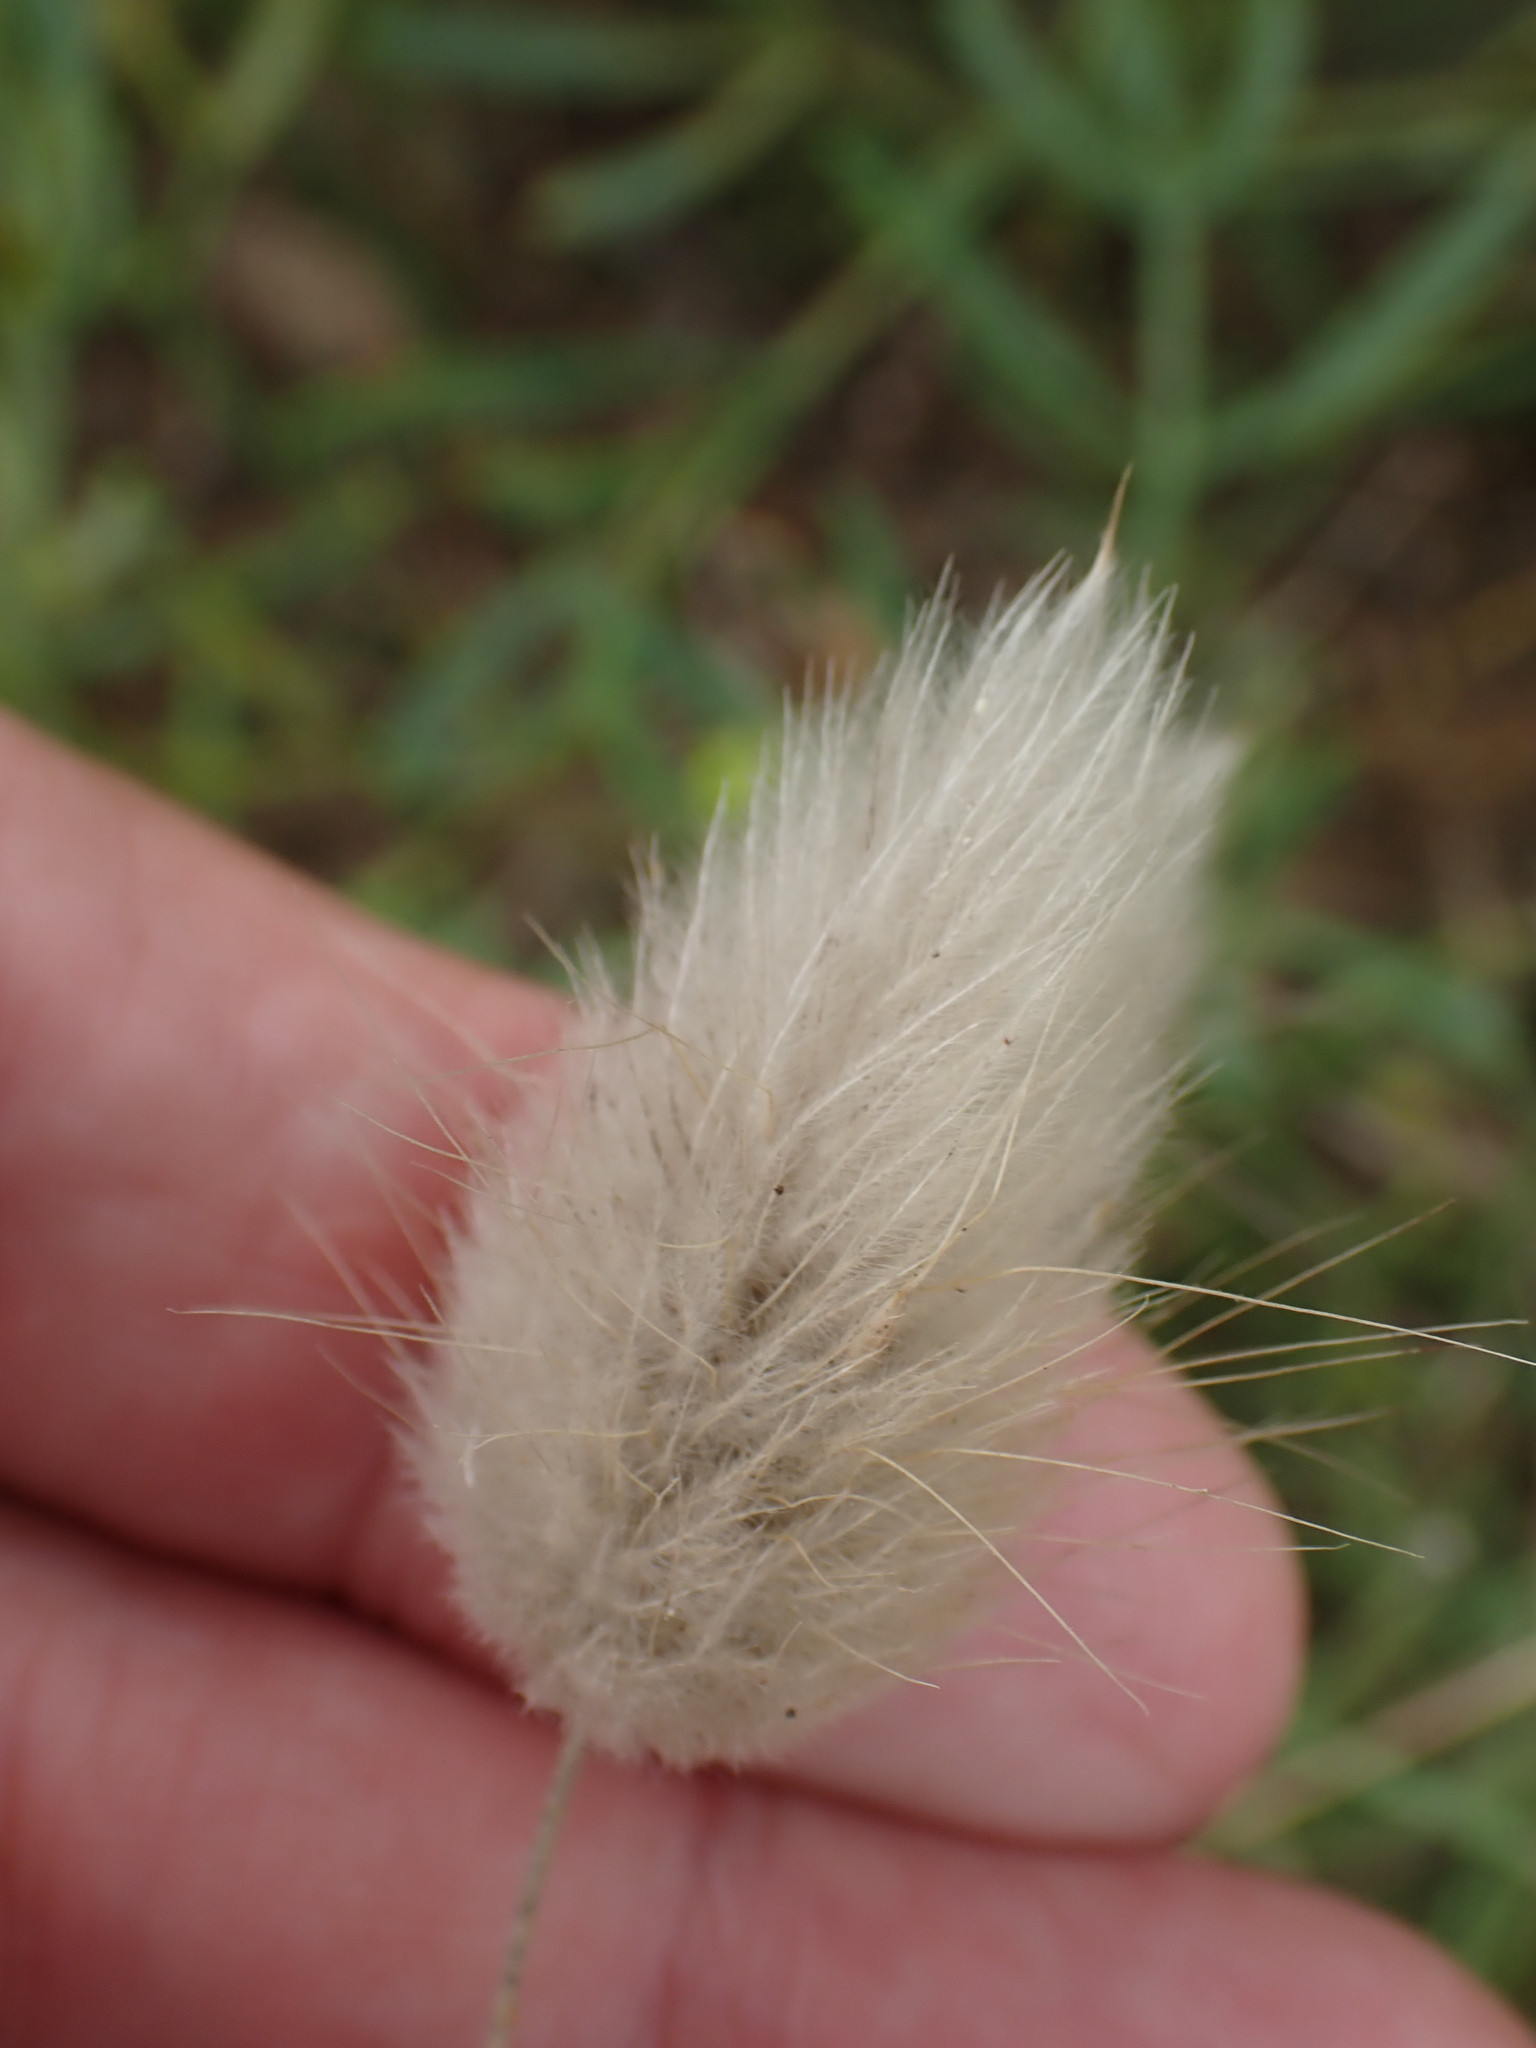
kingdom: Plantae
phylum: Tracheophyta
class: Liliopsida
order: Poales
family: Poaceae
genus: Lagurus
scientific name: Lagurus ovatus
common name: Hare's-tail
